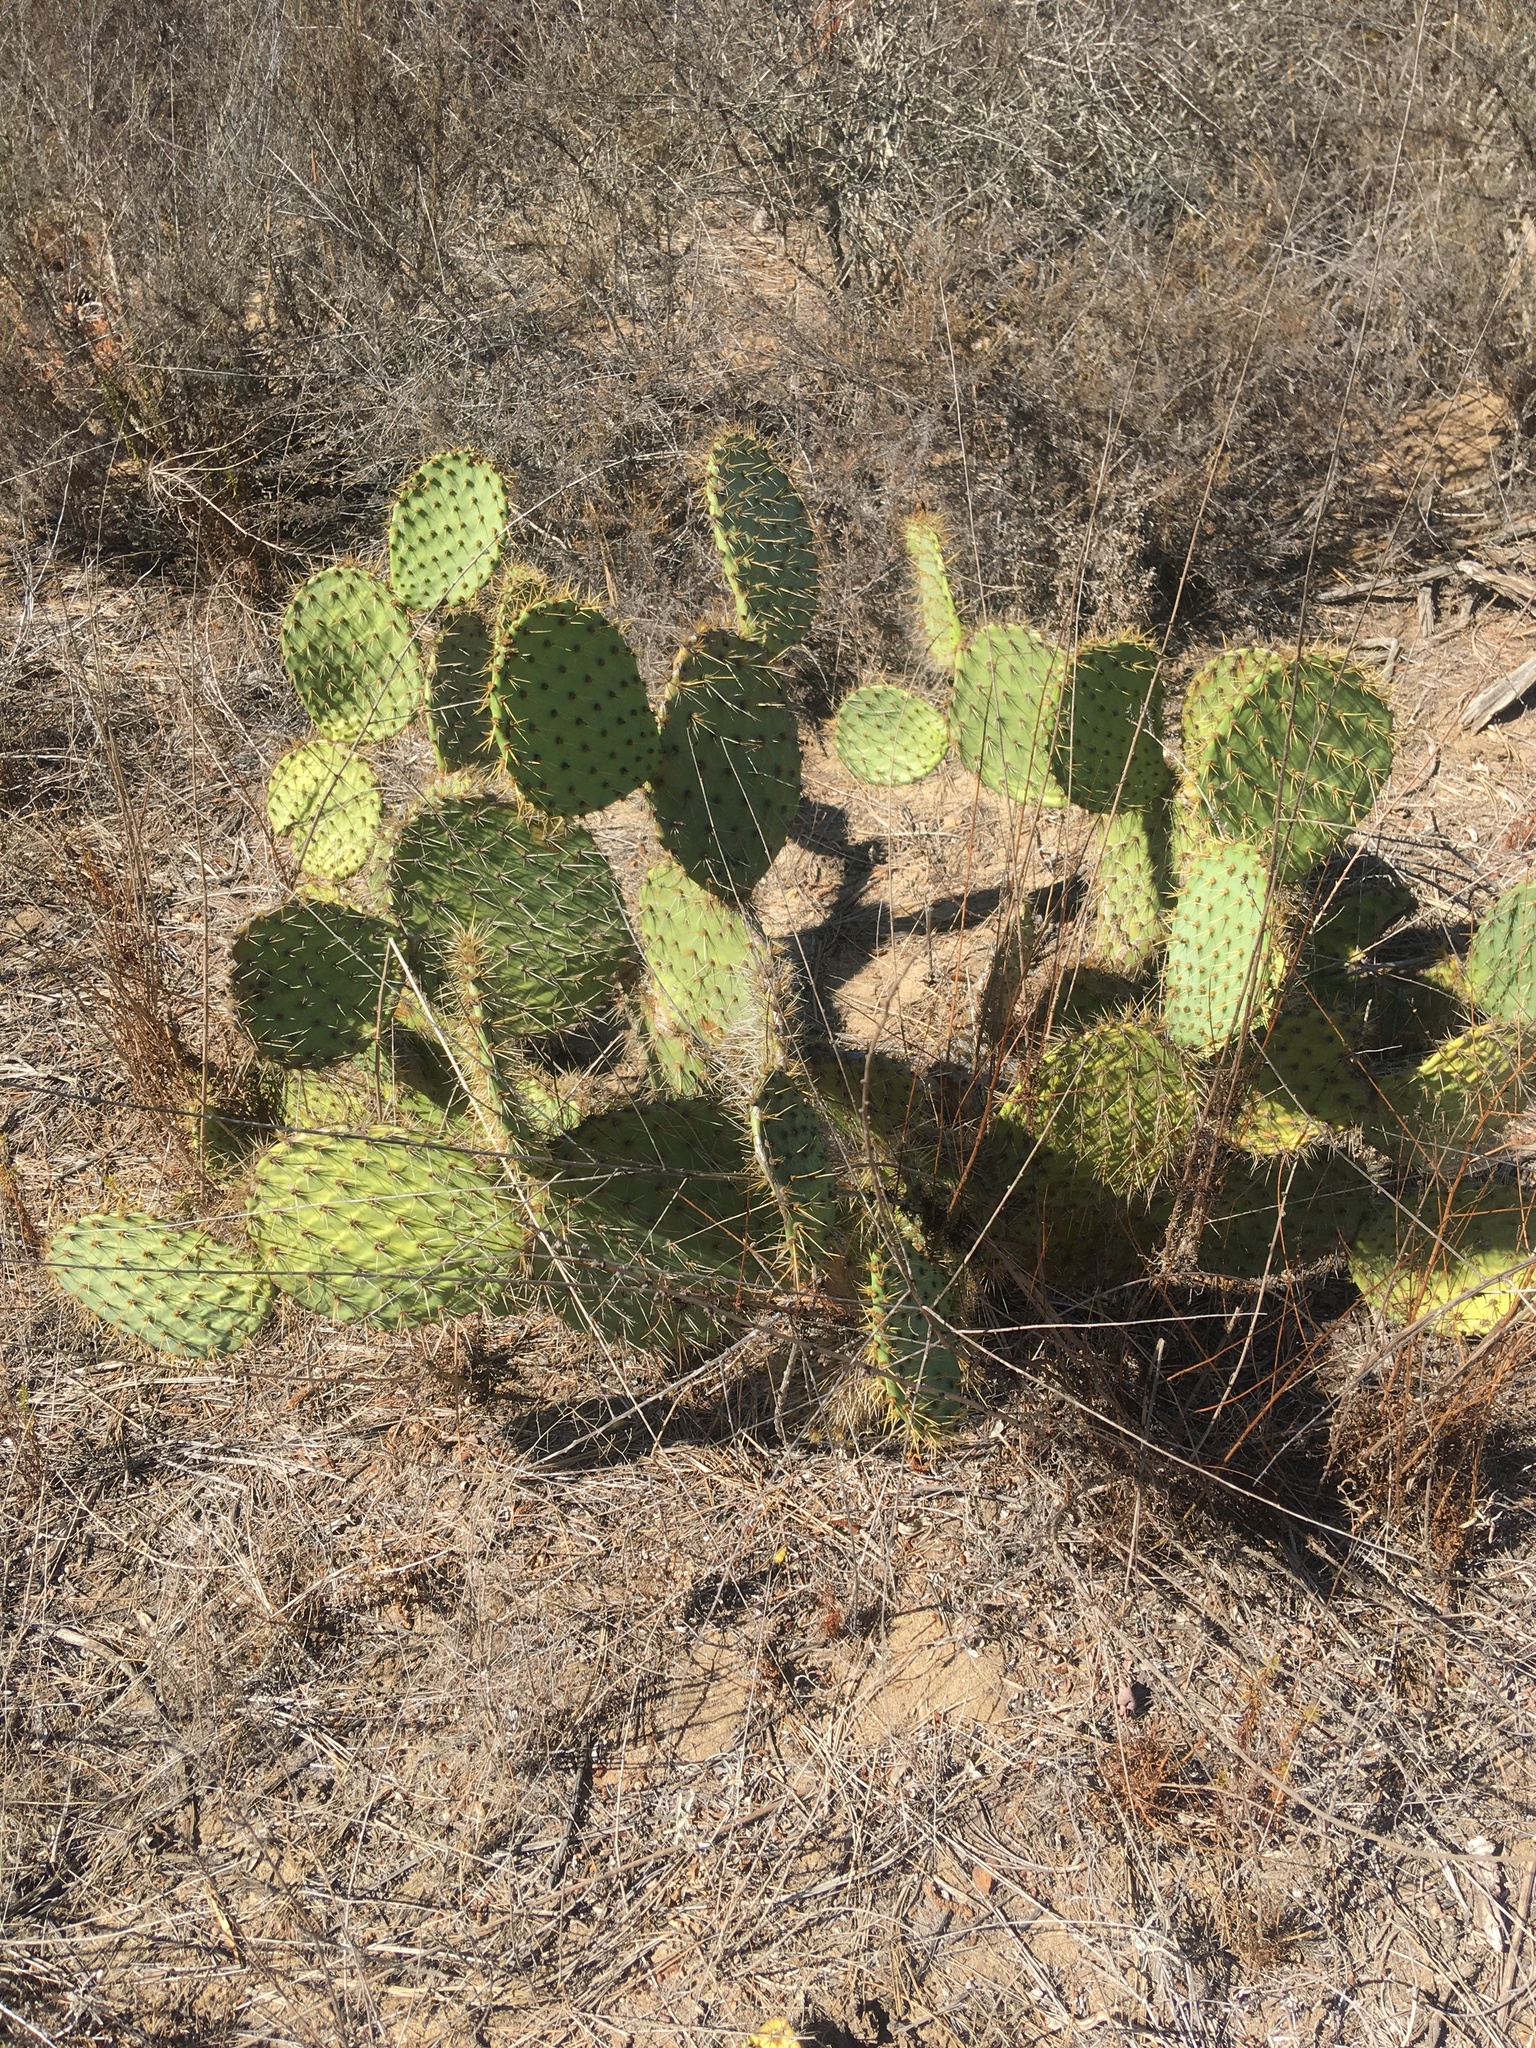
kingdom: Plantae
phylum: Tracheophyta
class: Magnoliopsida
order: Caryophyllales
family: Cactaceae
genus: Opuntia
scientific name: Opuntia oricola
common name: Chaparral prickly-pear
